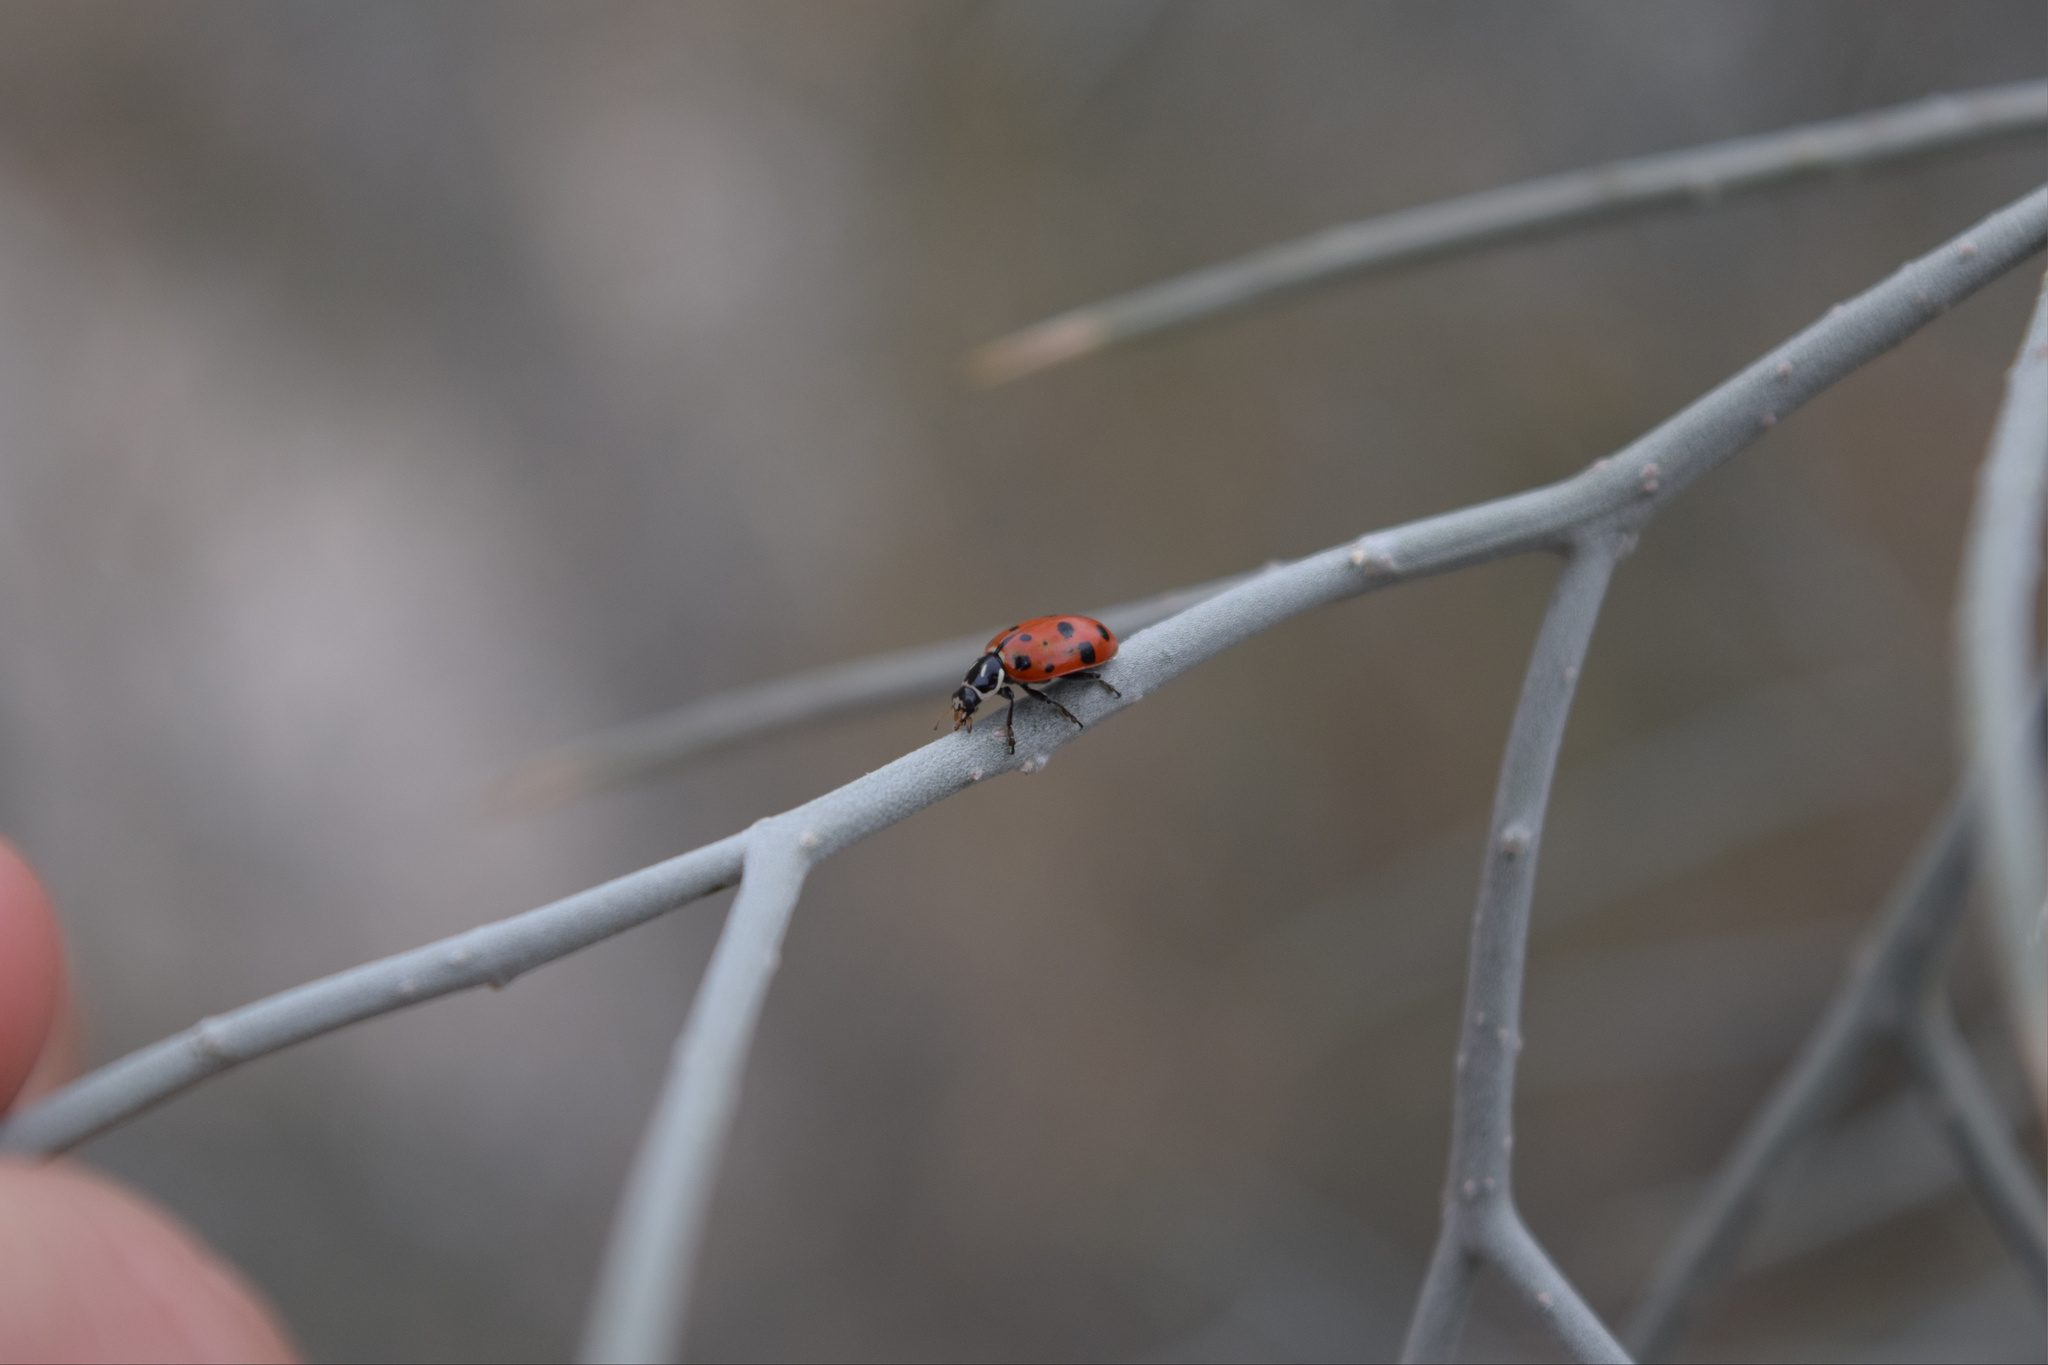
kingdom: Animalia
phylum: Arthropoda
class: Insecta
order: Coleoptera
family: Coccinellidae
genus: Hippodamia
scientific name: Hippodamia convergens
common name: Convergent lady beetle
